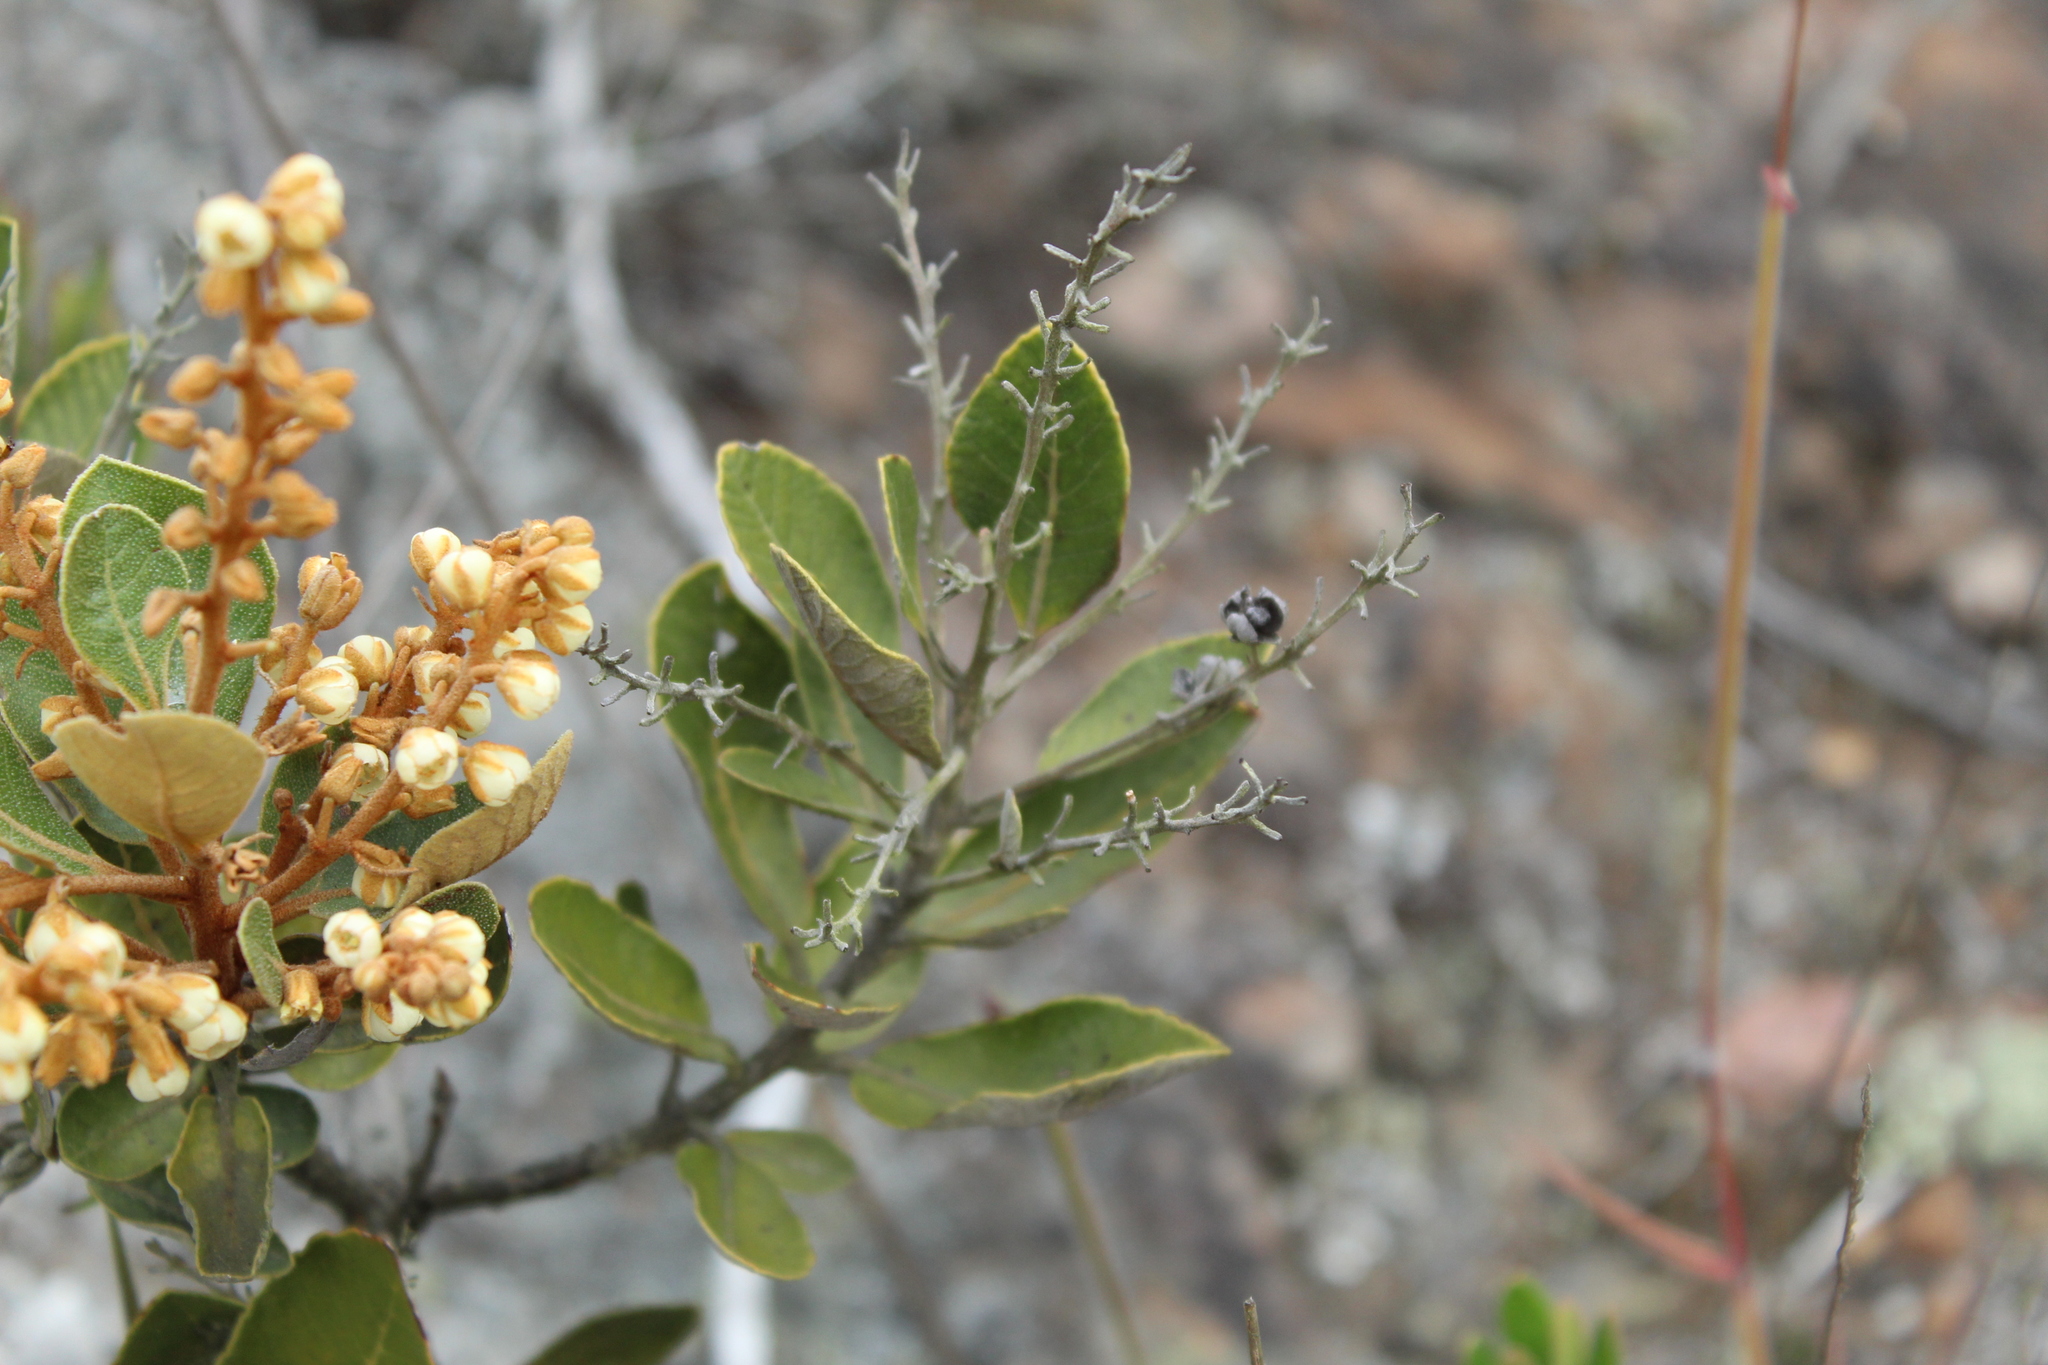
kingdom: Plantae
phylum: Tracheophyta
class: Magnoliopsida
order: Ericales
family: Clethraceae
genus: Clethra
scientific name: Clethra fimbriata
